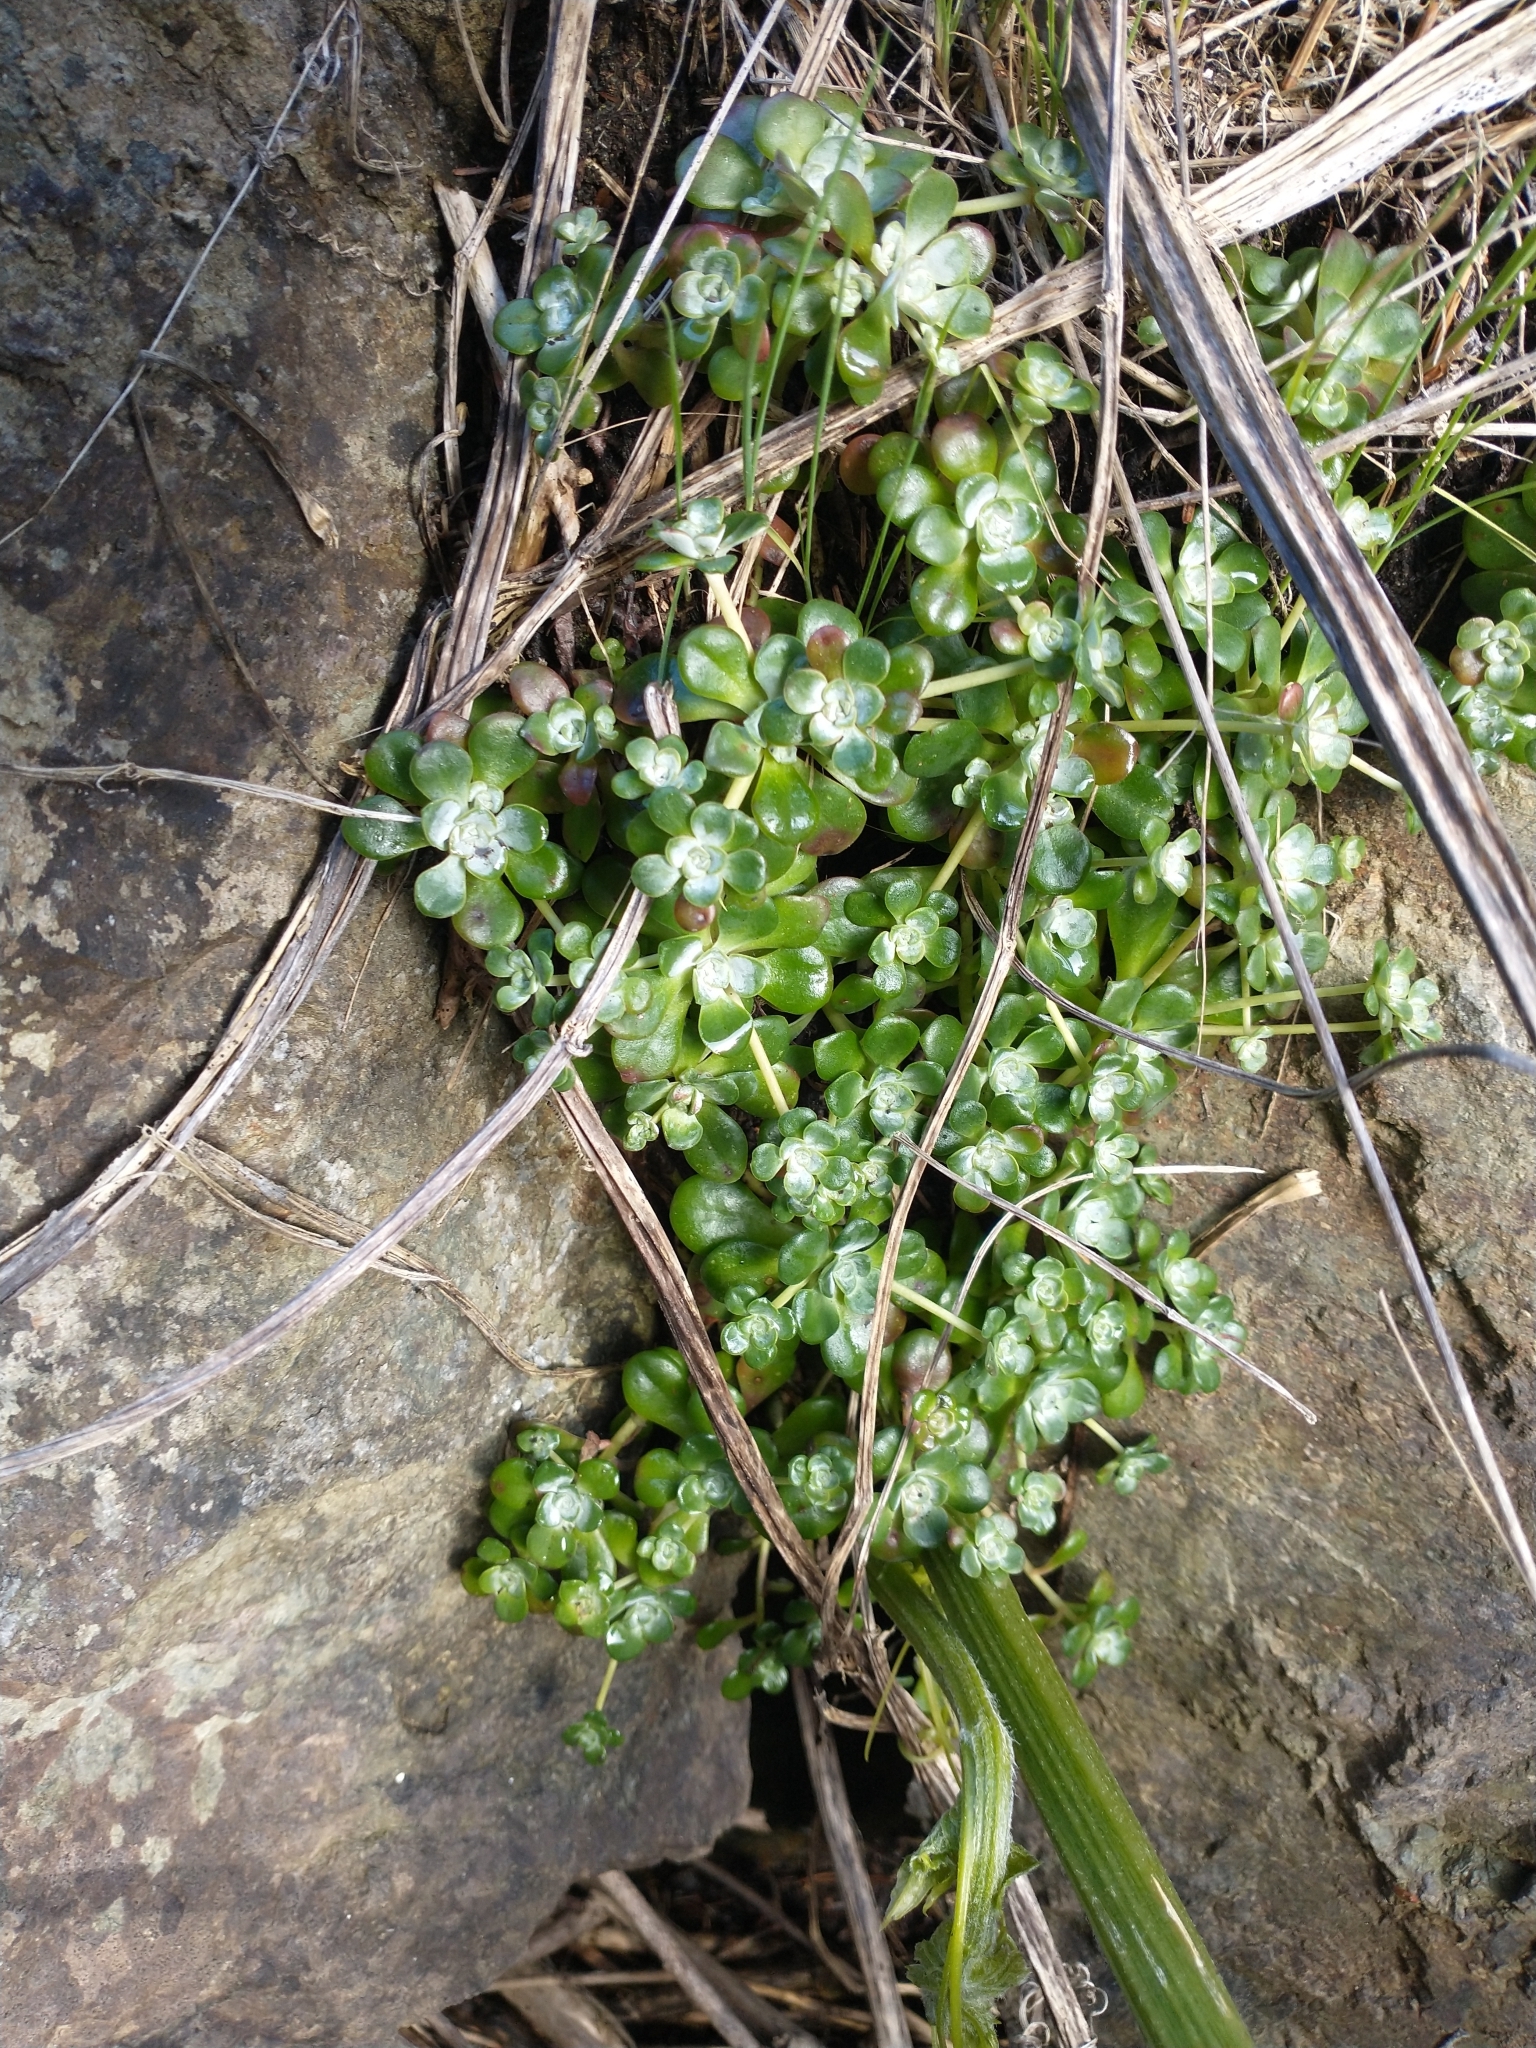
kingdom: Plantae
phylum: Tracheophyta
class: Magnoliopsida
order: Saxifragales
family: Crassulaceae
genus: Sedum
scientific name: Sedum spathulifolium
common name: Colorado stonecrop
